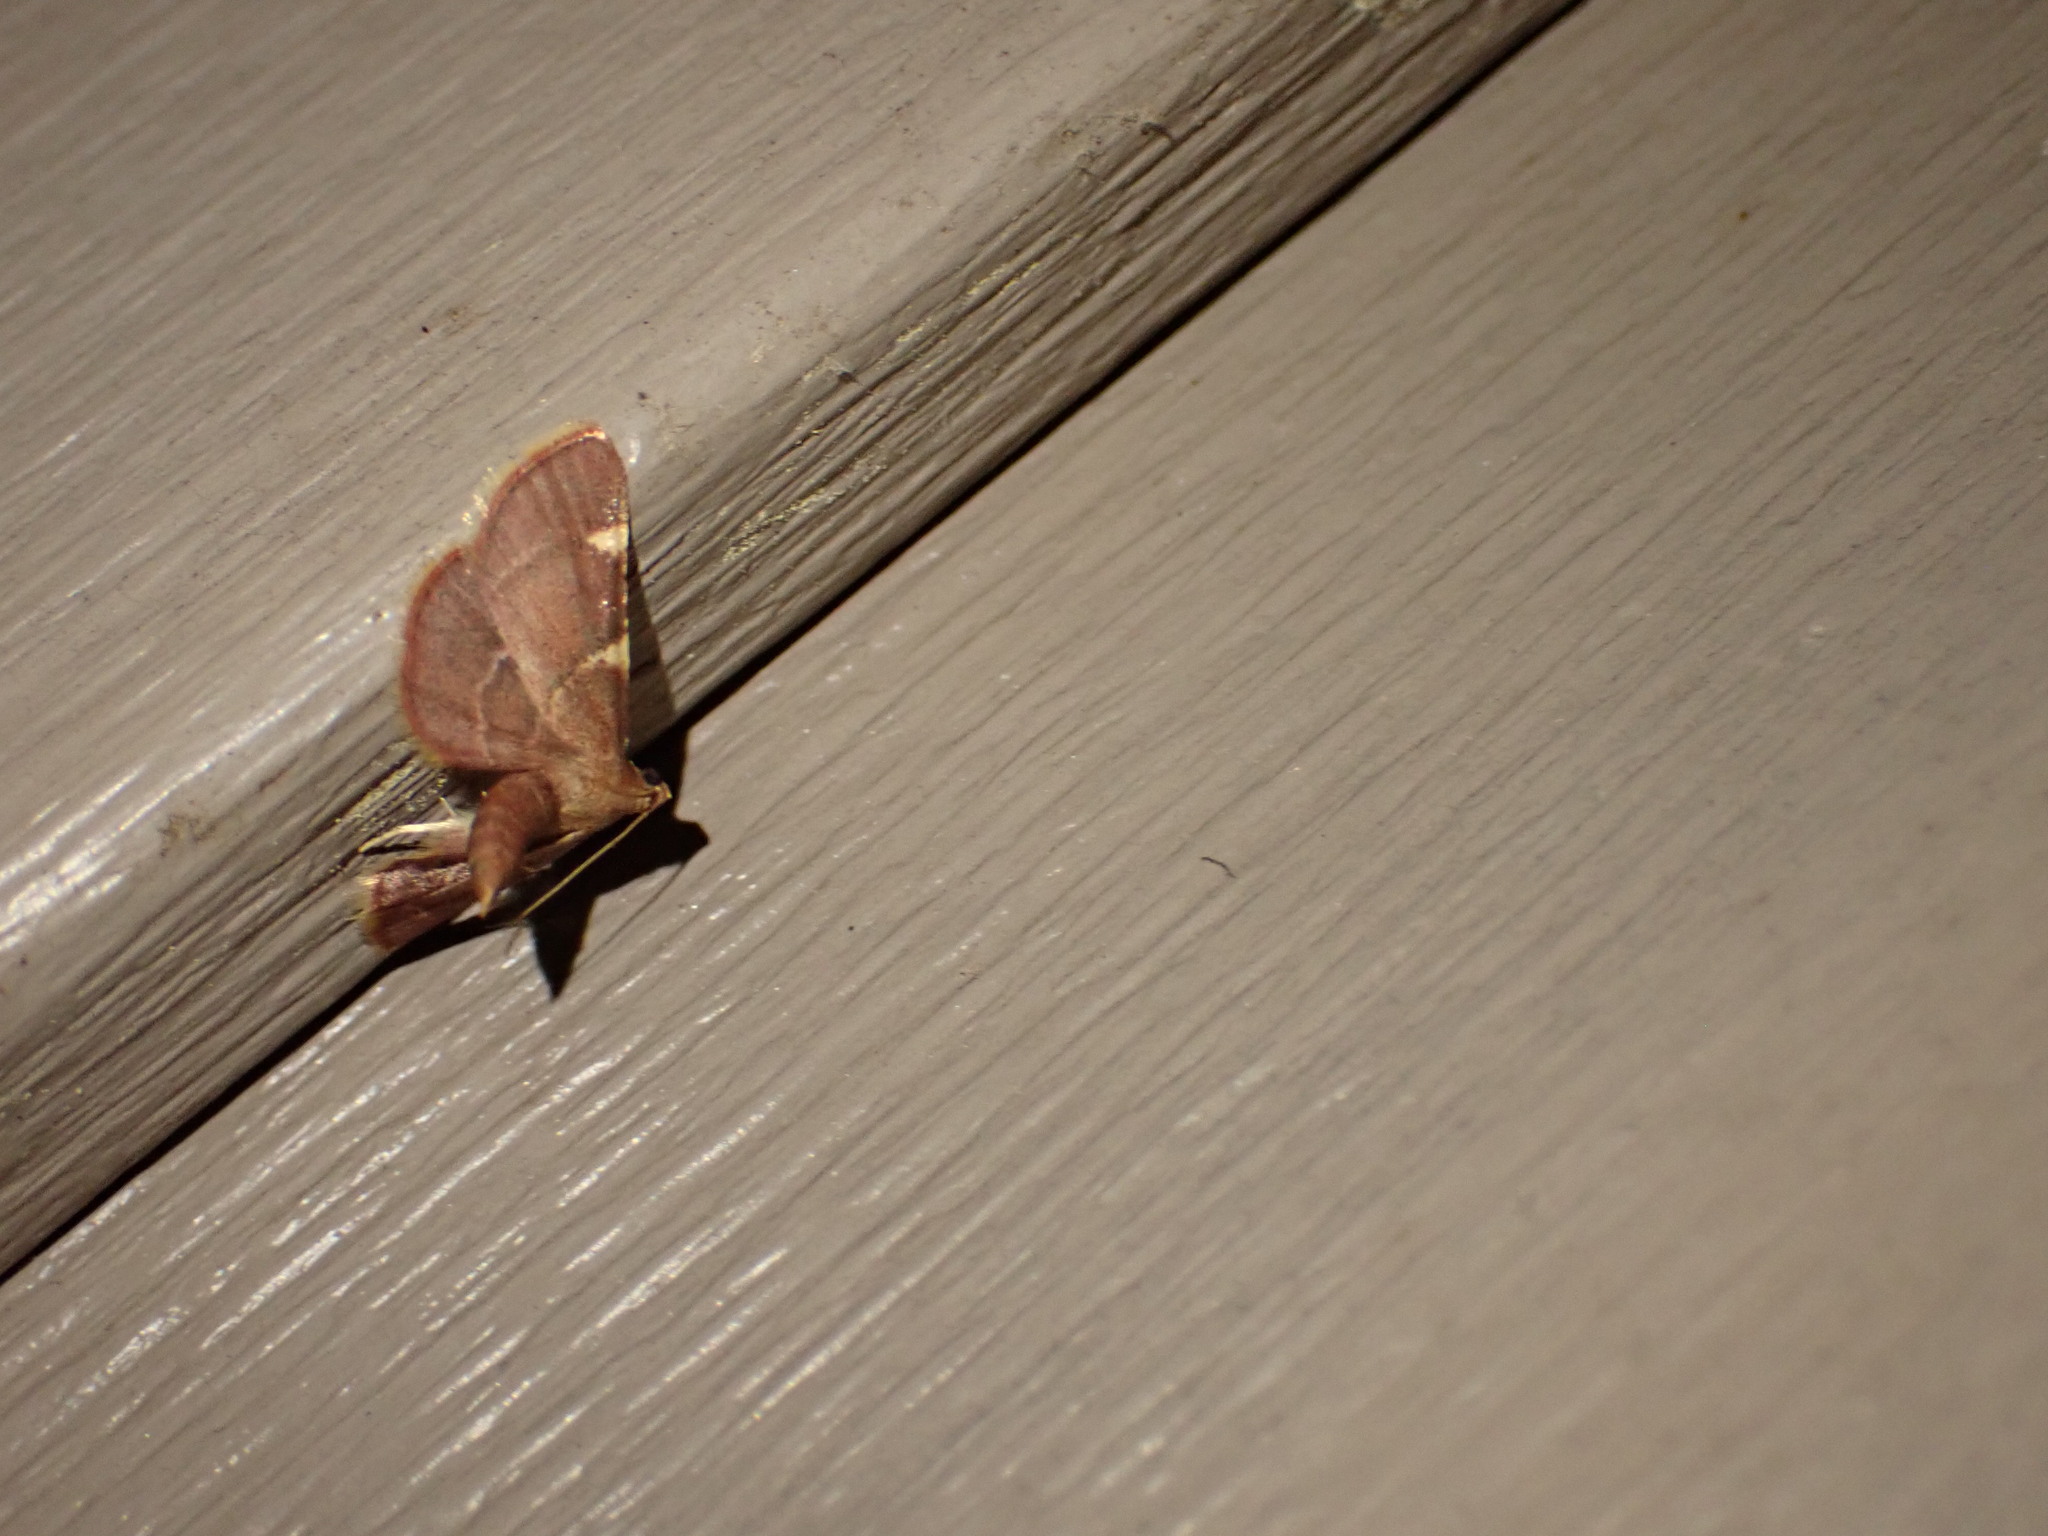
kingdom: Animalia
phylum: Arthropoda
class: Insecta
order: Lepidoptera
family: Pyralidae
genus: Hypsopygia
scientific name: Hypsopygia olinalis
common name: Yellow-fringed dolichomia moth
